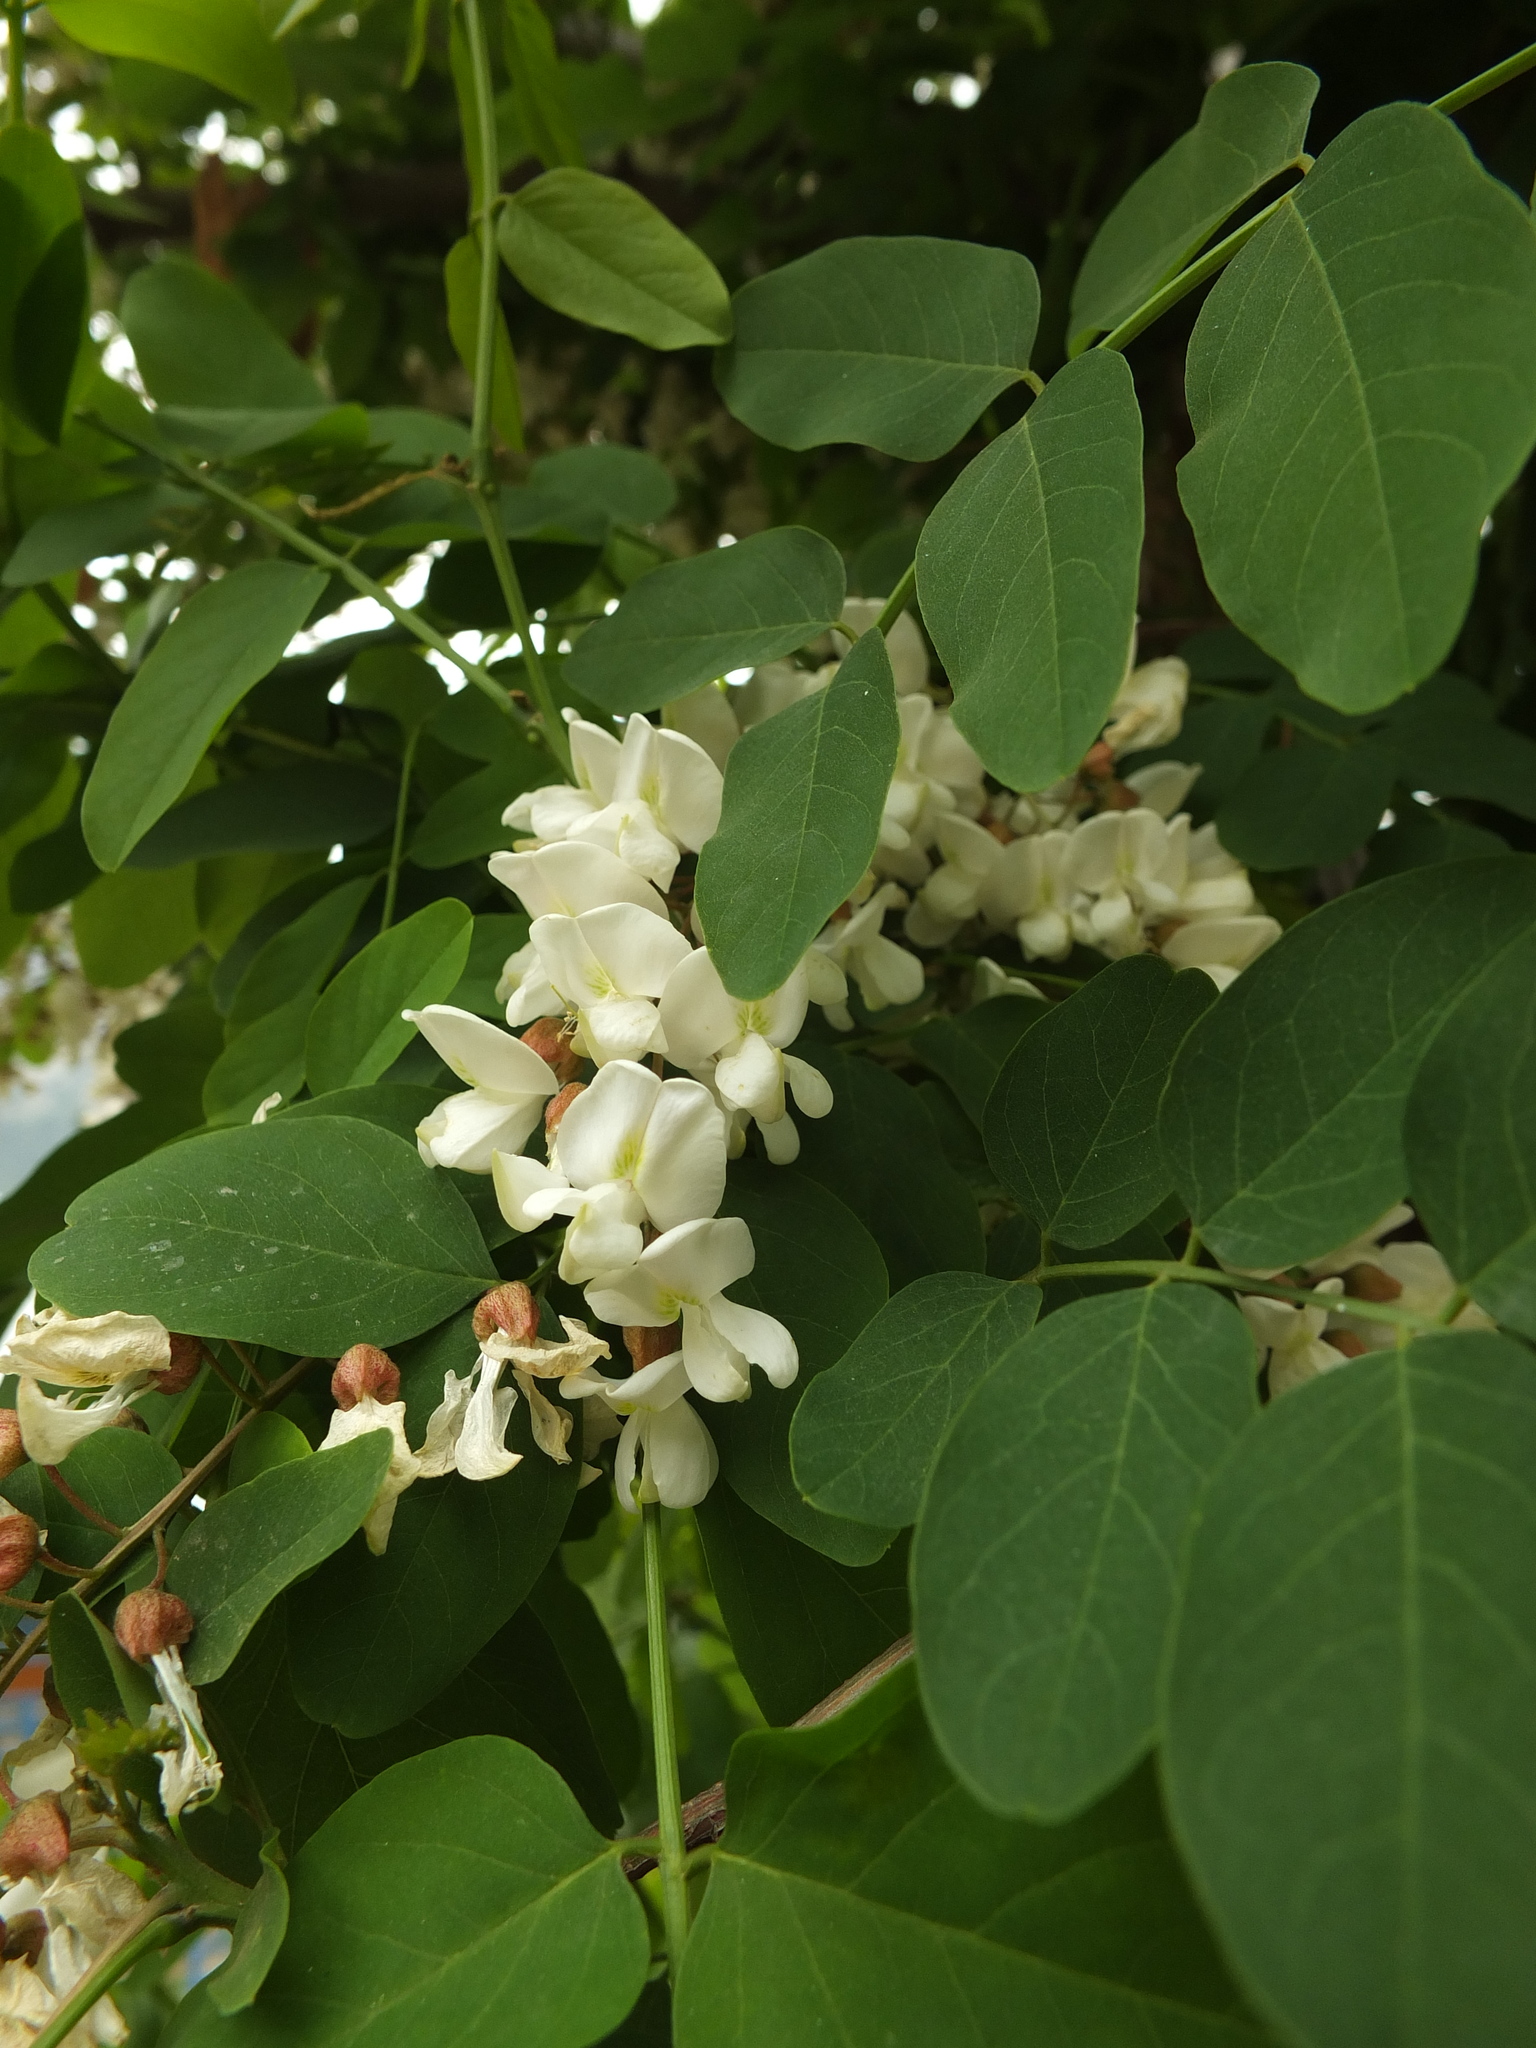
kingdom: Plantae
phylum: Tracheophyta
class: Magnoliopsida
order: Fabales
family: Fabaceae
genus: Robinia
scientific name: Robinia pseudoacacia
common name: Black locust
